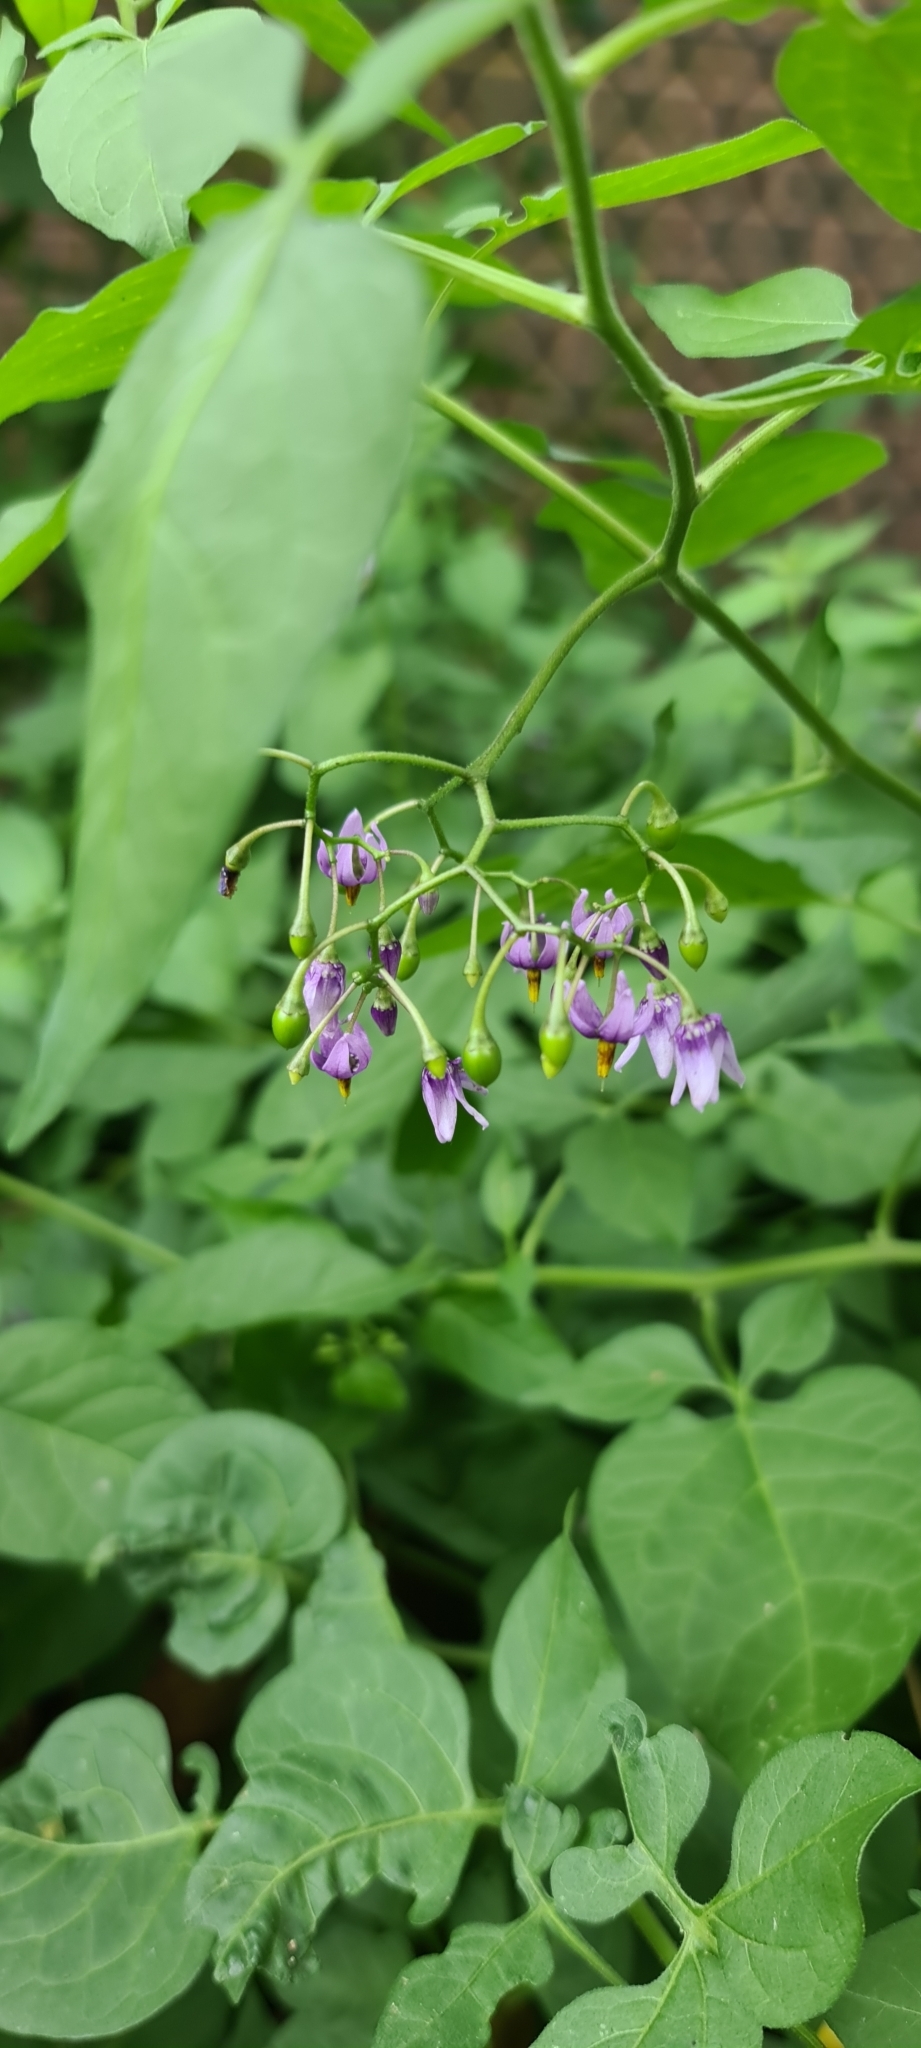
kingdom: Plantae
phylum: Tracheophyta
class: Magnoliopsida
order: Solanales
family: Solanaceae
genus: Solanum
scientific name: Solanum dulcamara
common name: Climbing nightshade
